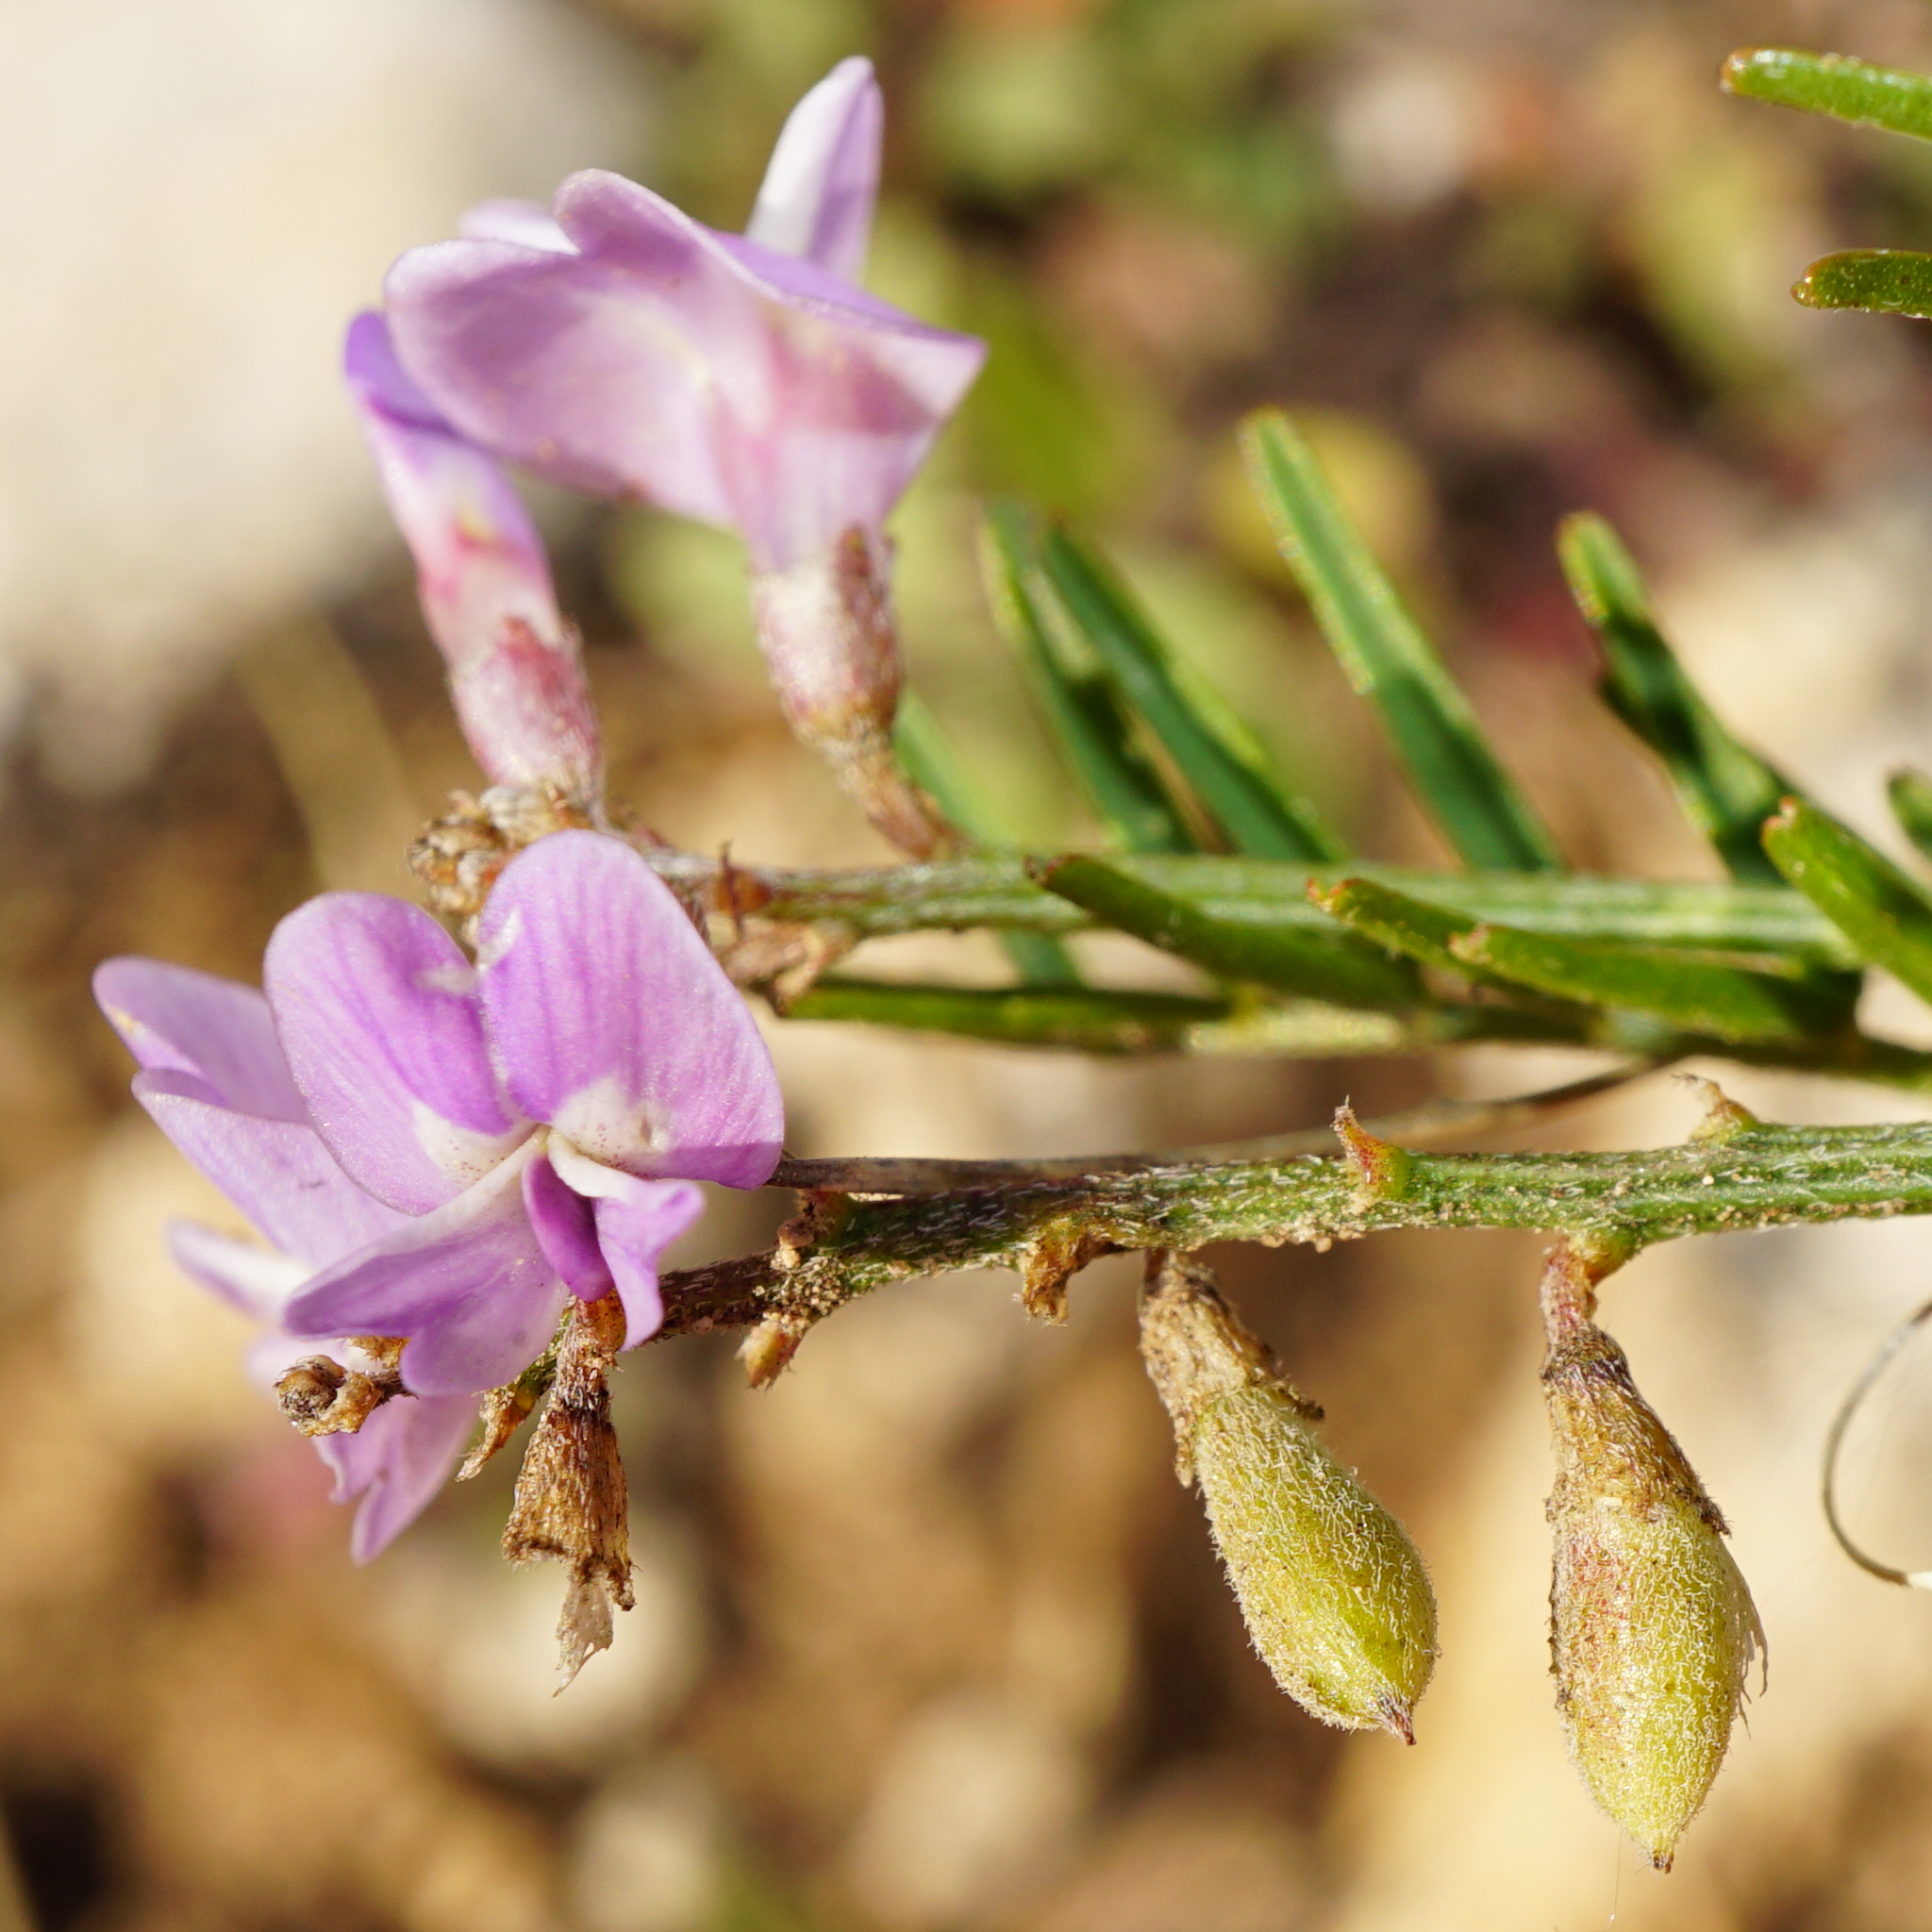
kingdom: Plantae
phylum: Tracheophyta
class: Magnoliopsida
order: Fabales
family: Fabaceae
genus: Astragalus
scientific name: Astragalus austriacus
